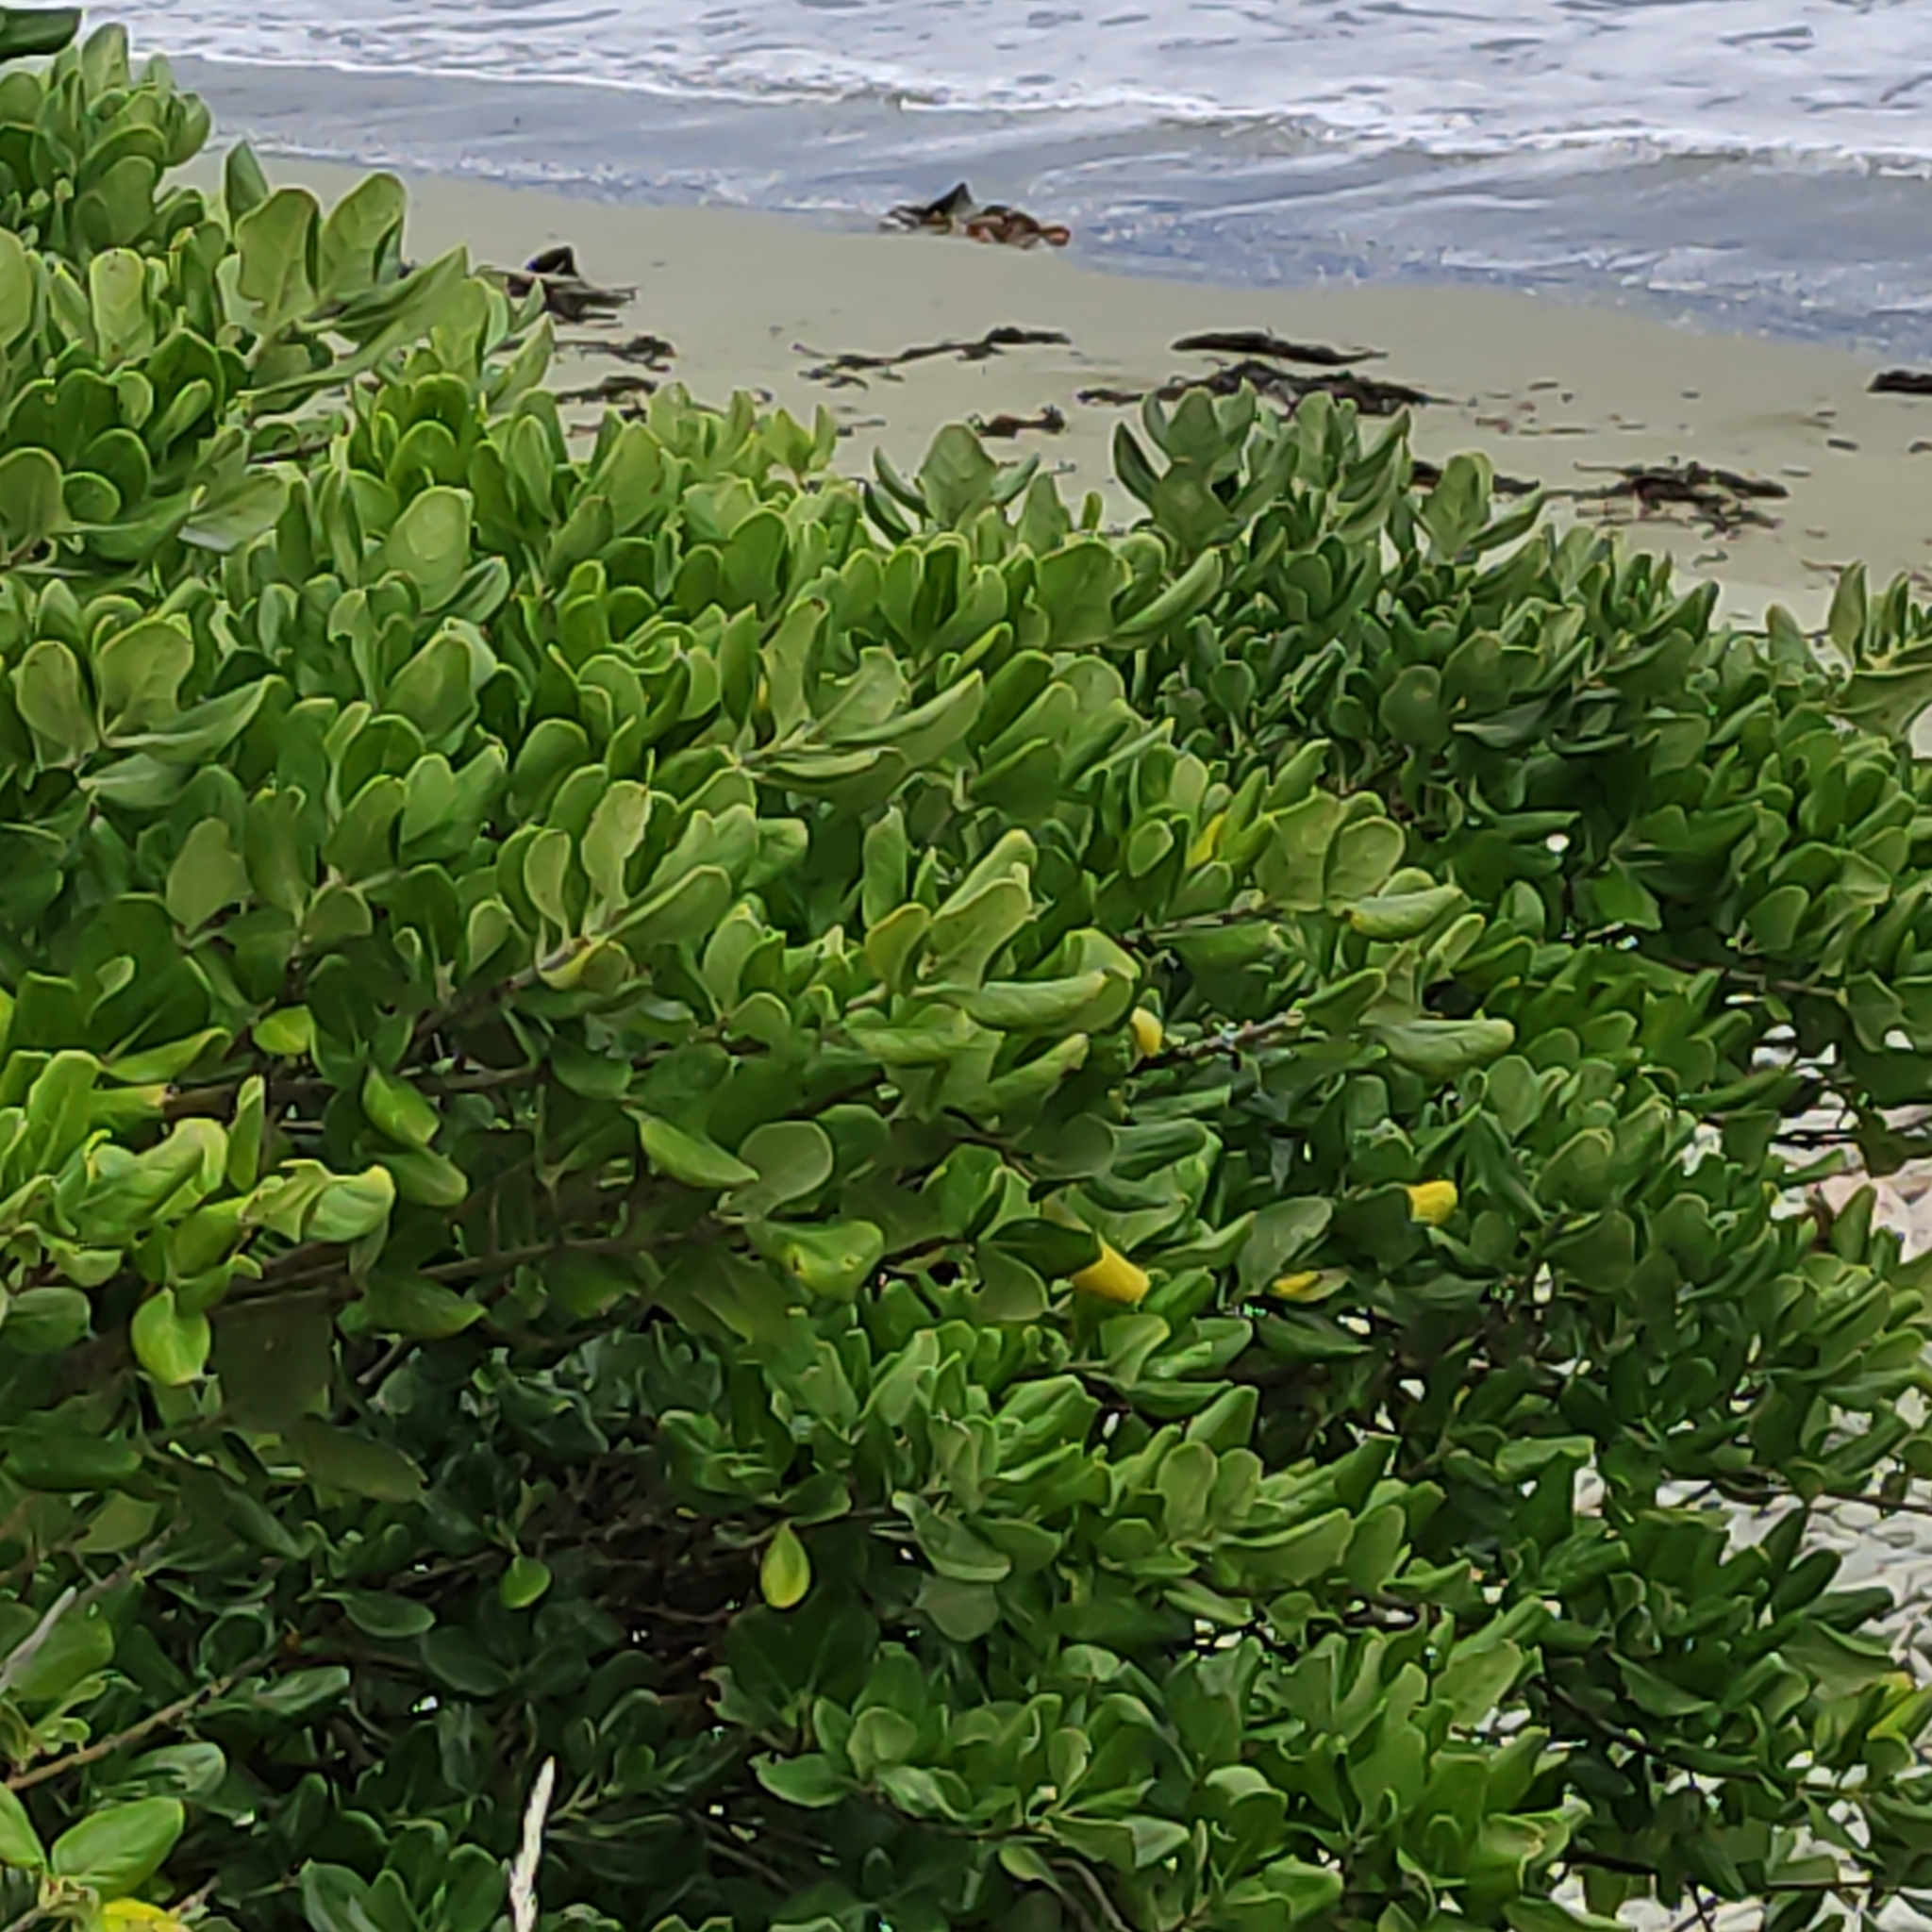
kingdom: Plantae
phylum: Tracheophyta
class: Magnoliopsida
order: Gentianales
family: Rubiaceae
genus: Coprosma
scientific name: Coprosma repens
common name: Tree bedstraw
